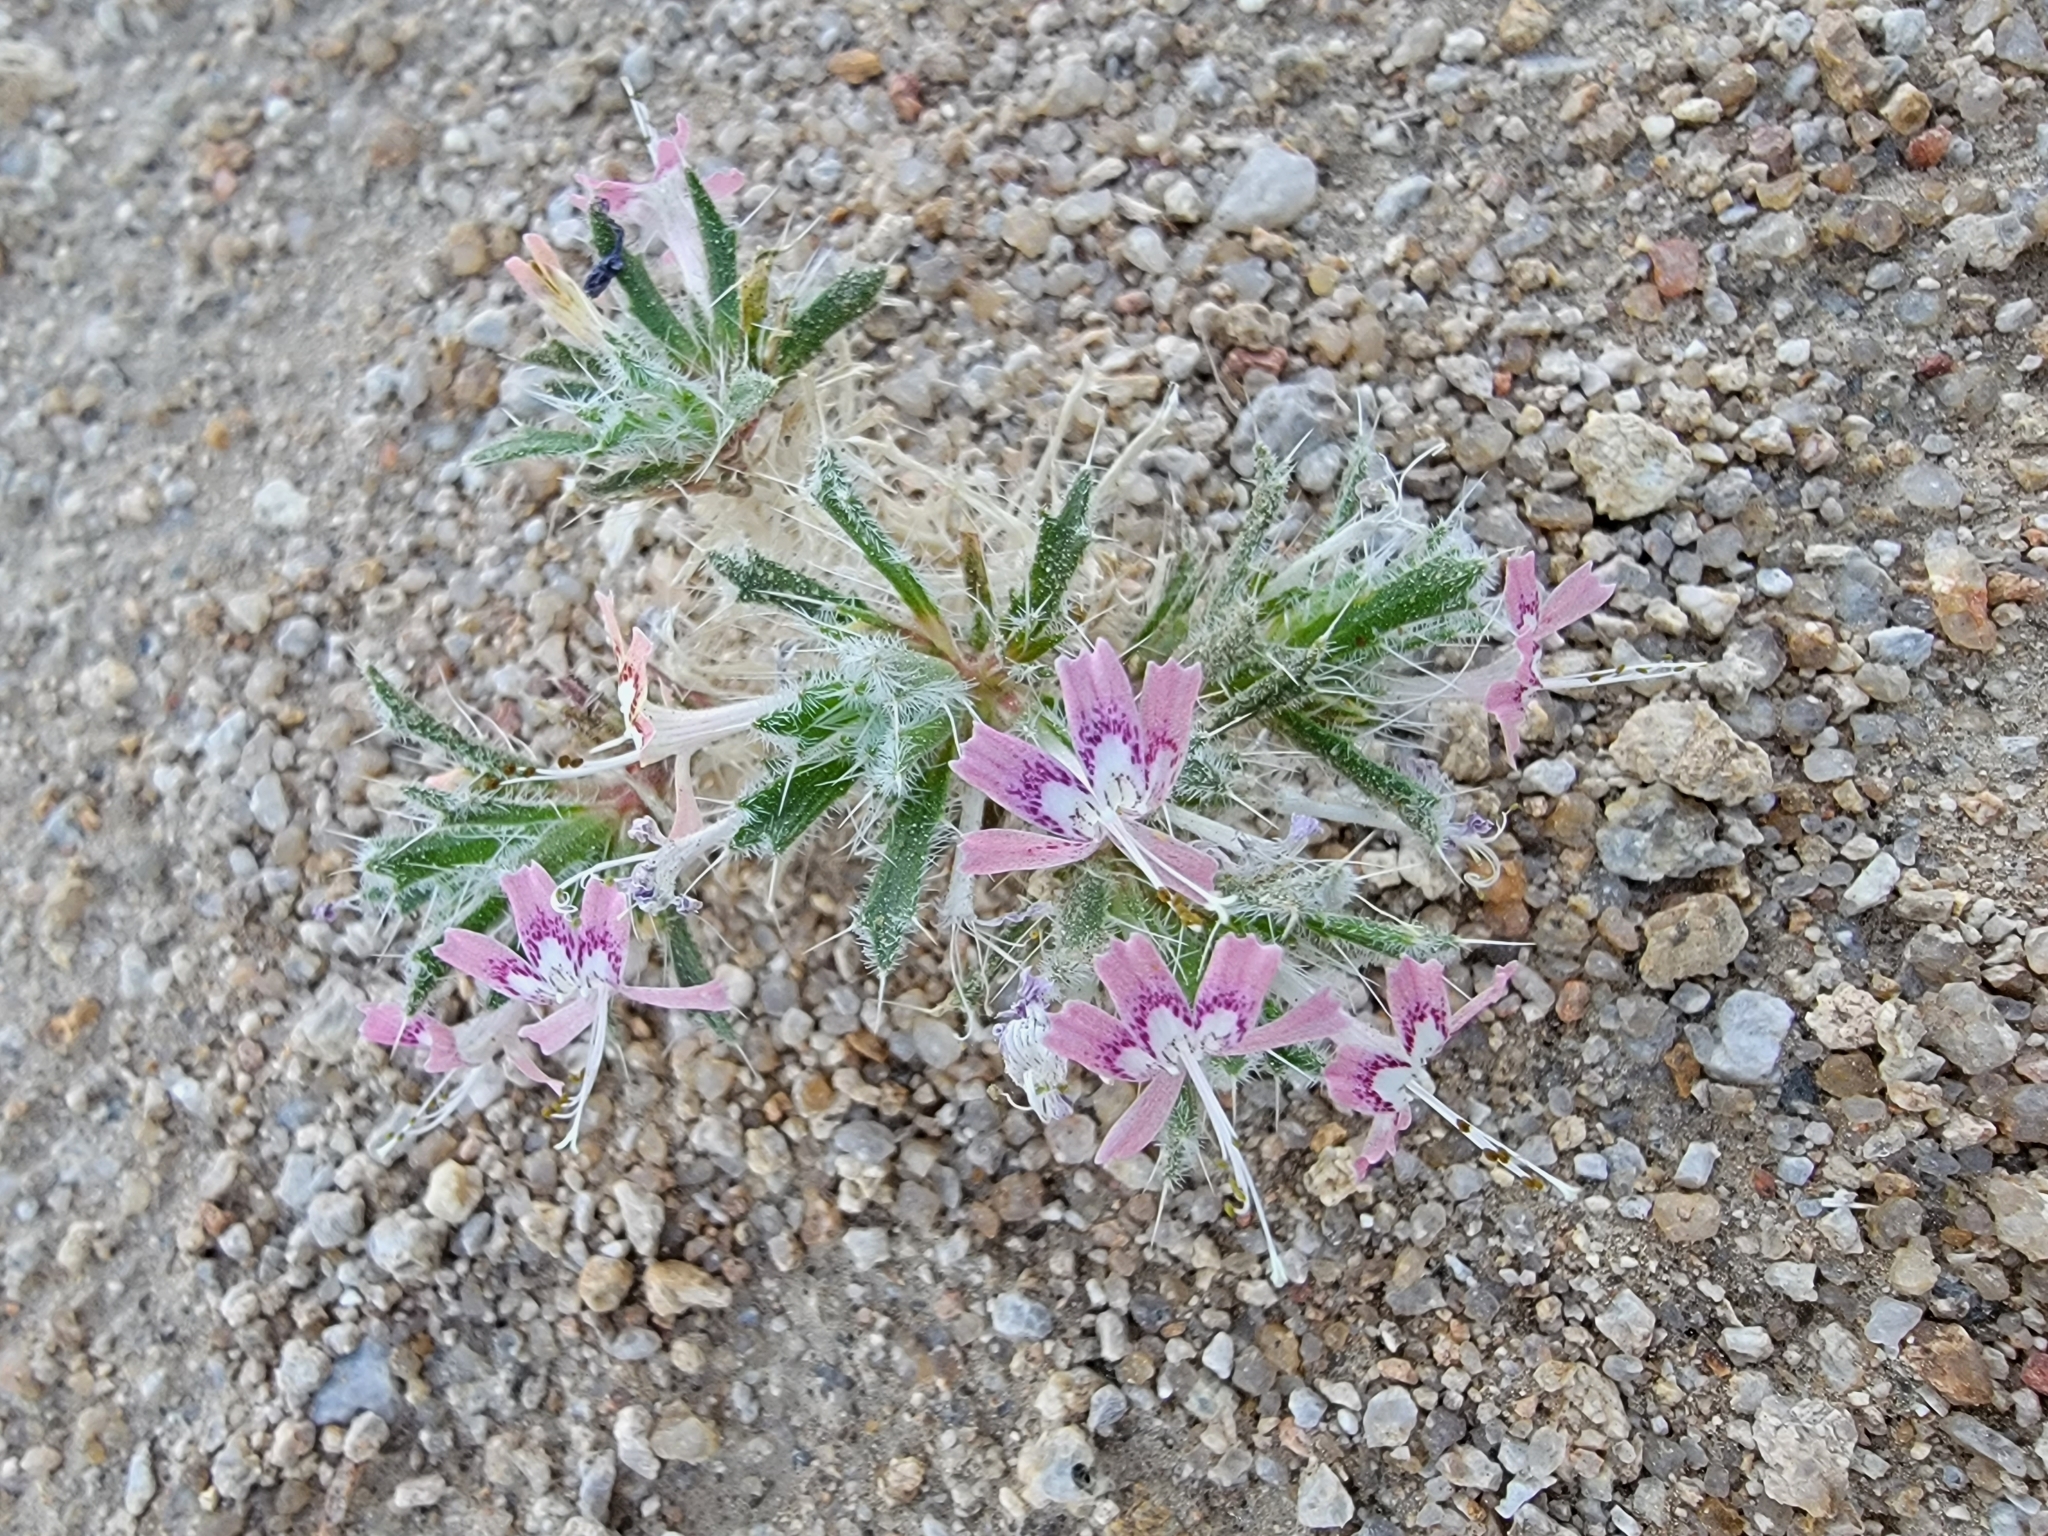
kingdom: Plantae
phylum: Tracheophyta
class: Magnoliopsida
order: Ericales
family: Polemoniaceae
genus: Loeseliastrum
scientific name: Loeseliastrum matthewsii
